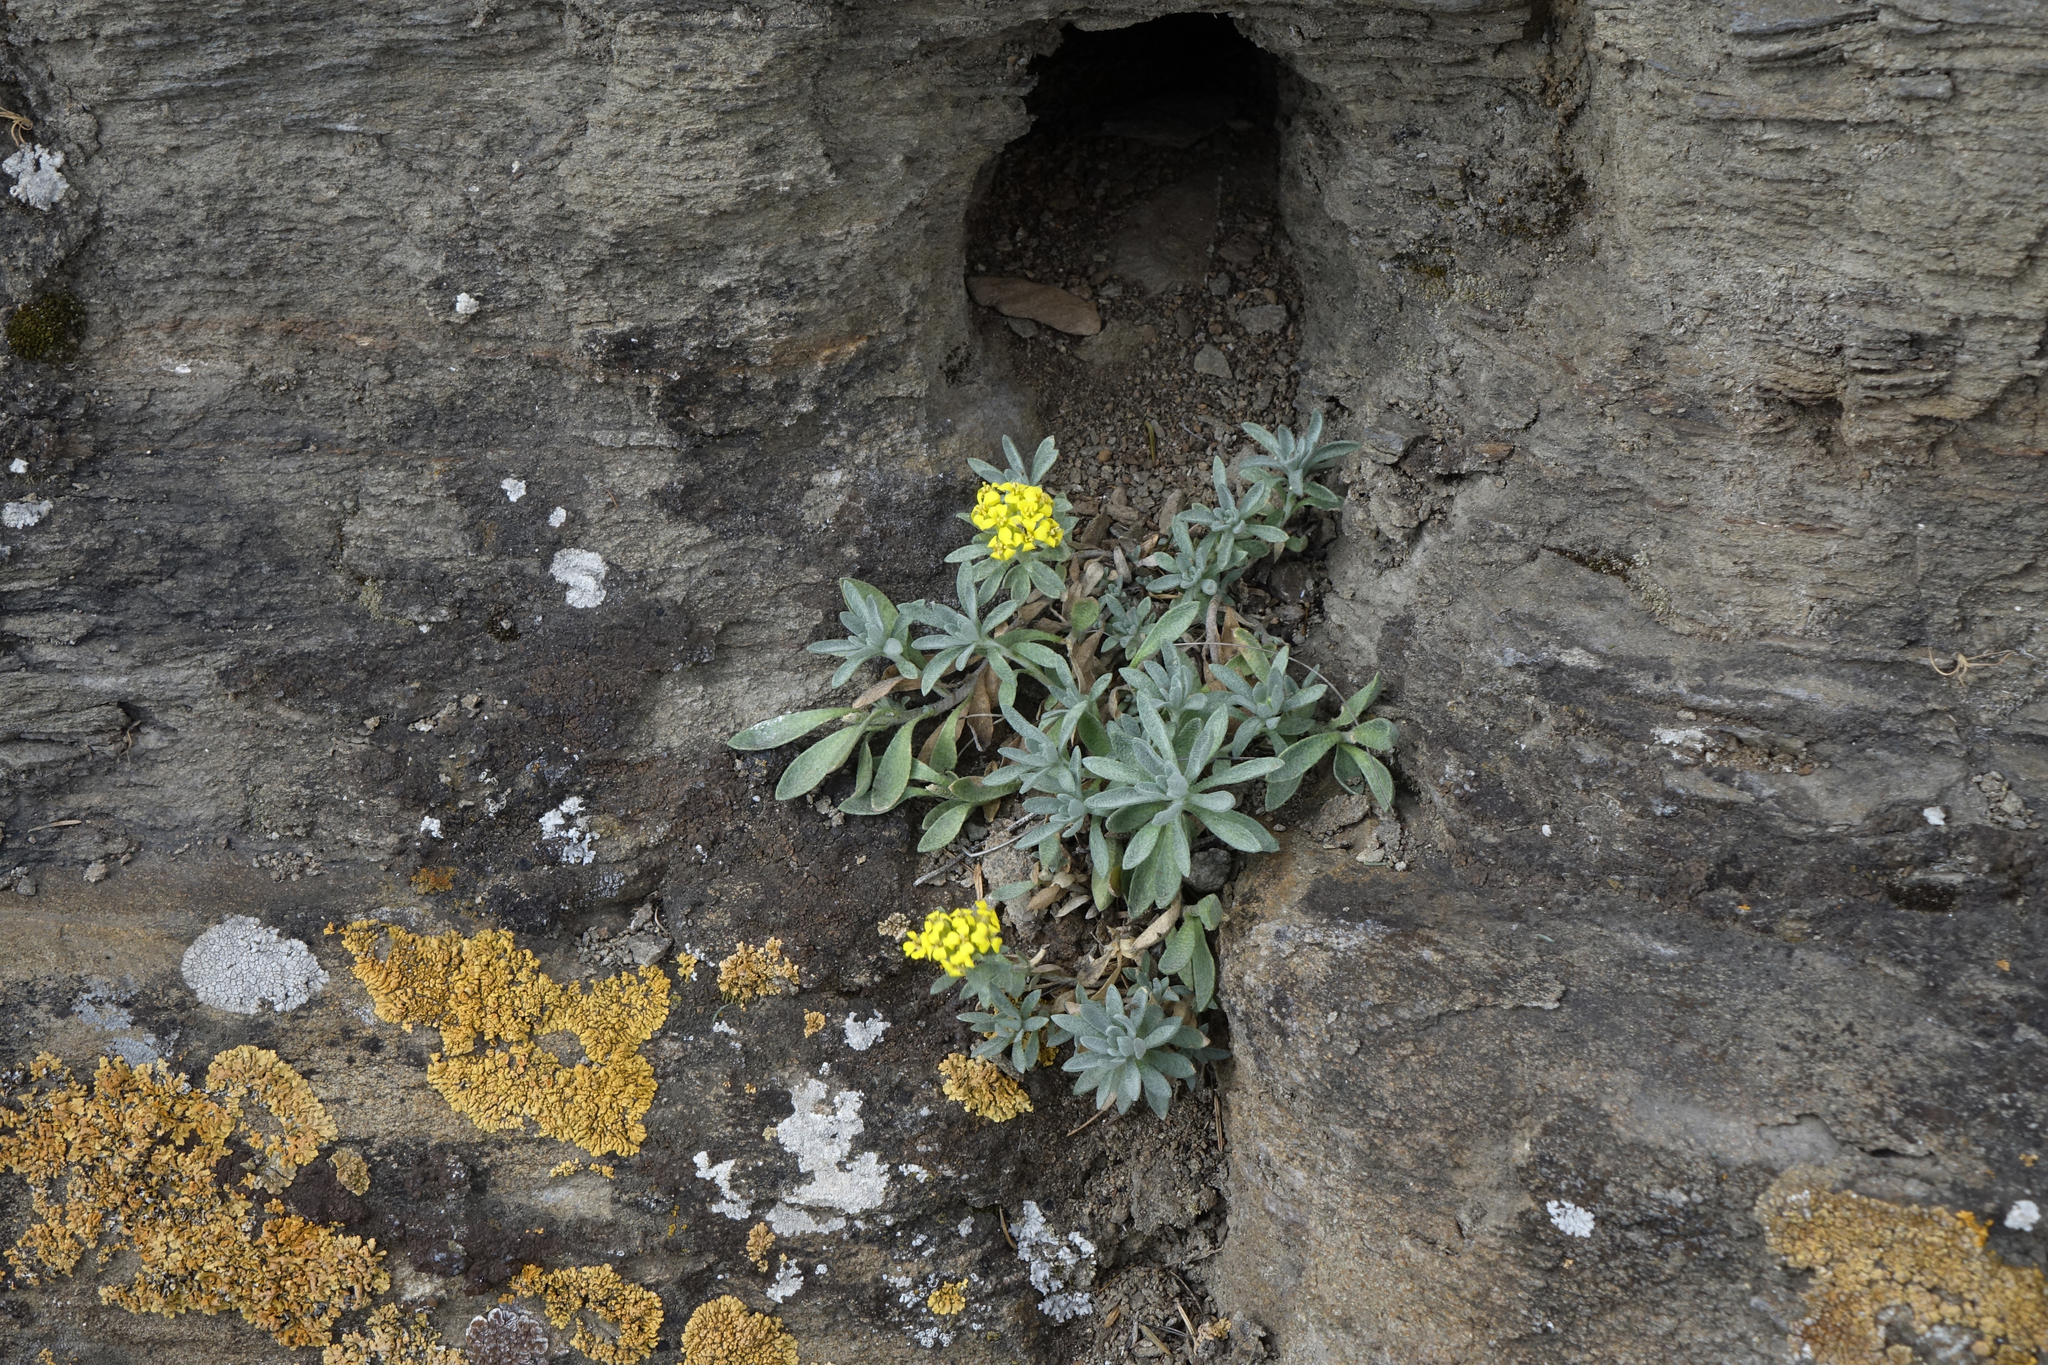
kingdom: Plantae
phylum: Tracheophyta
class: Magnoliopsida
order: Brassicales
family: Brassicaceae
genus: Alyssum
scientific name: Alyssum lenense
